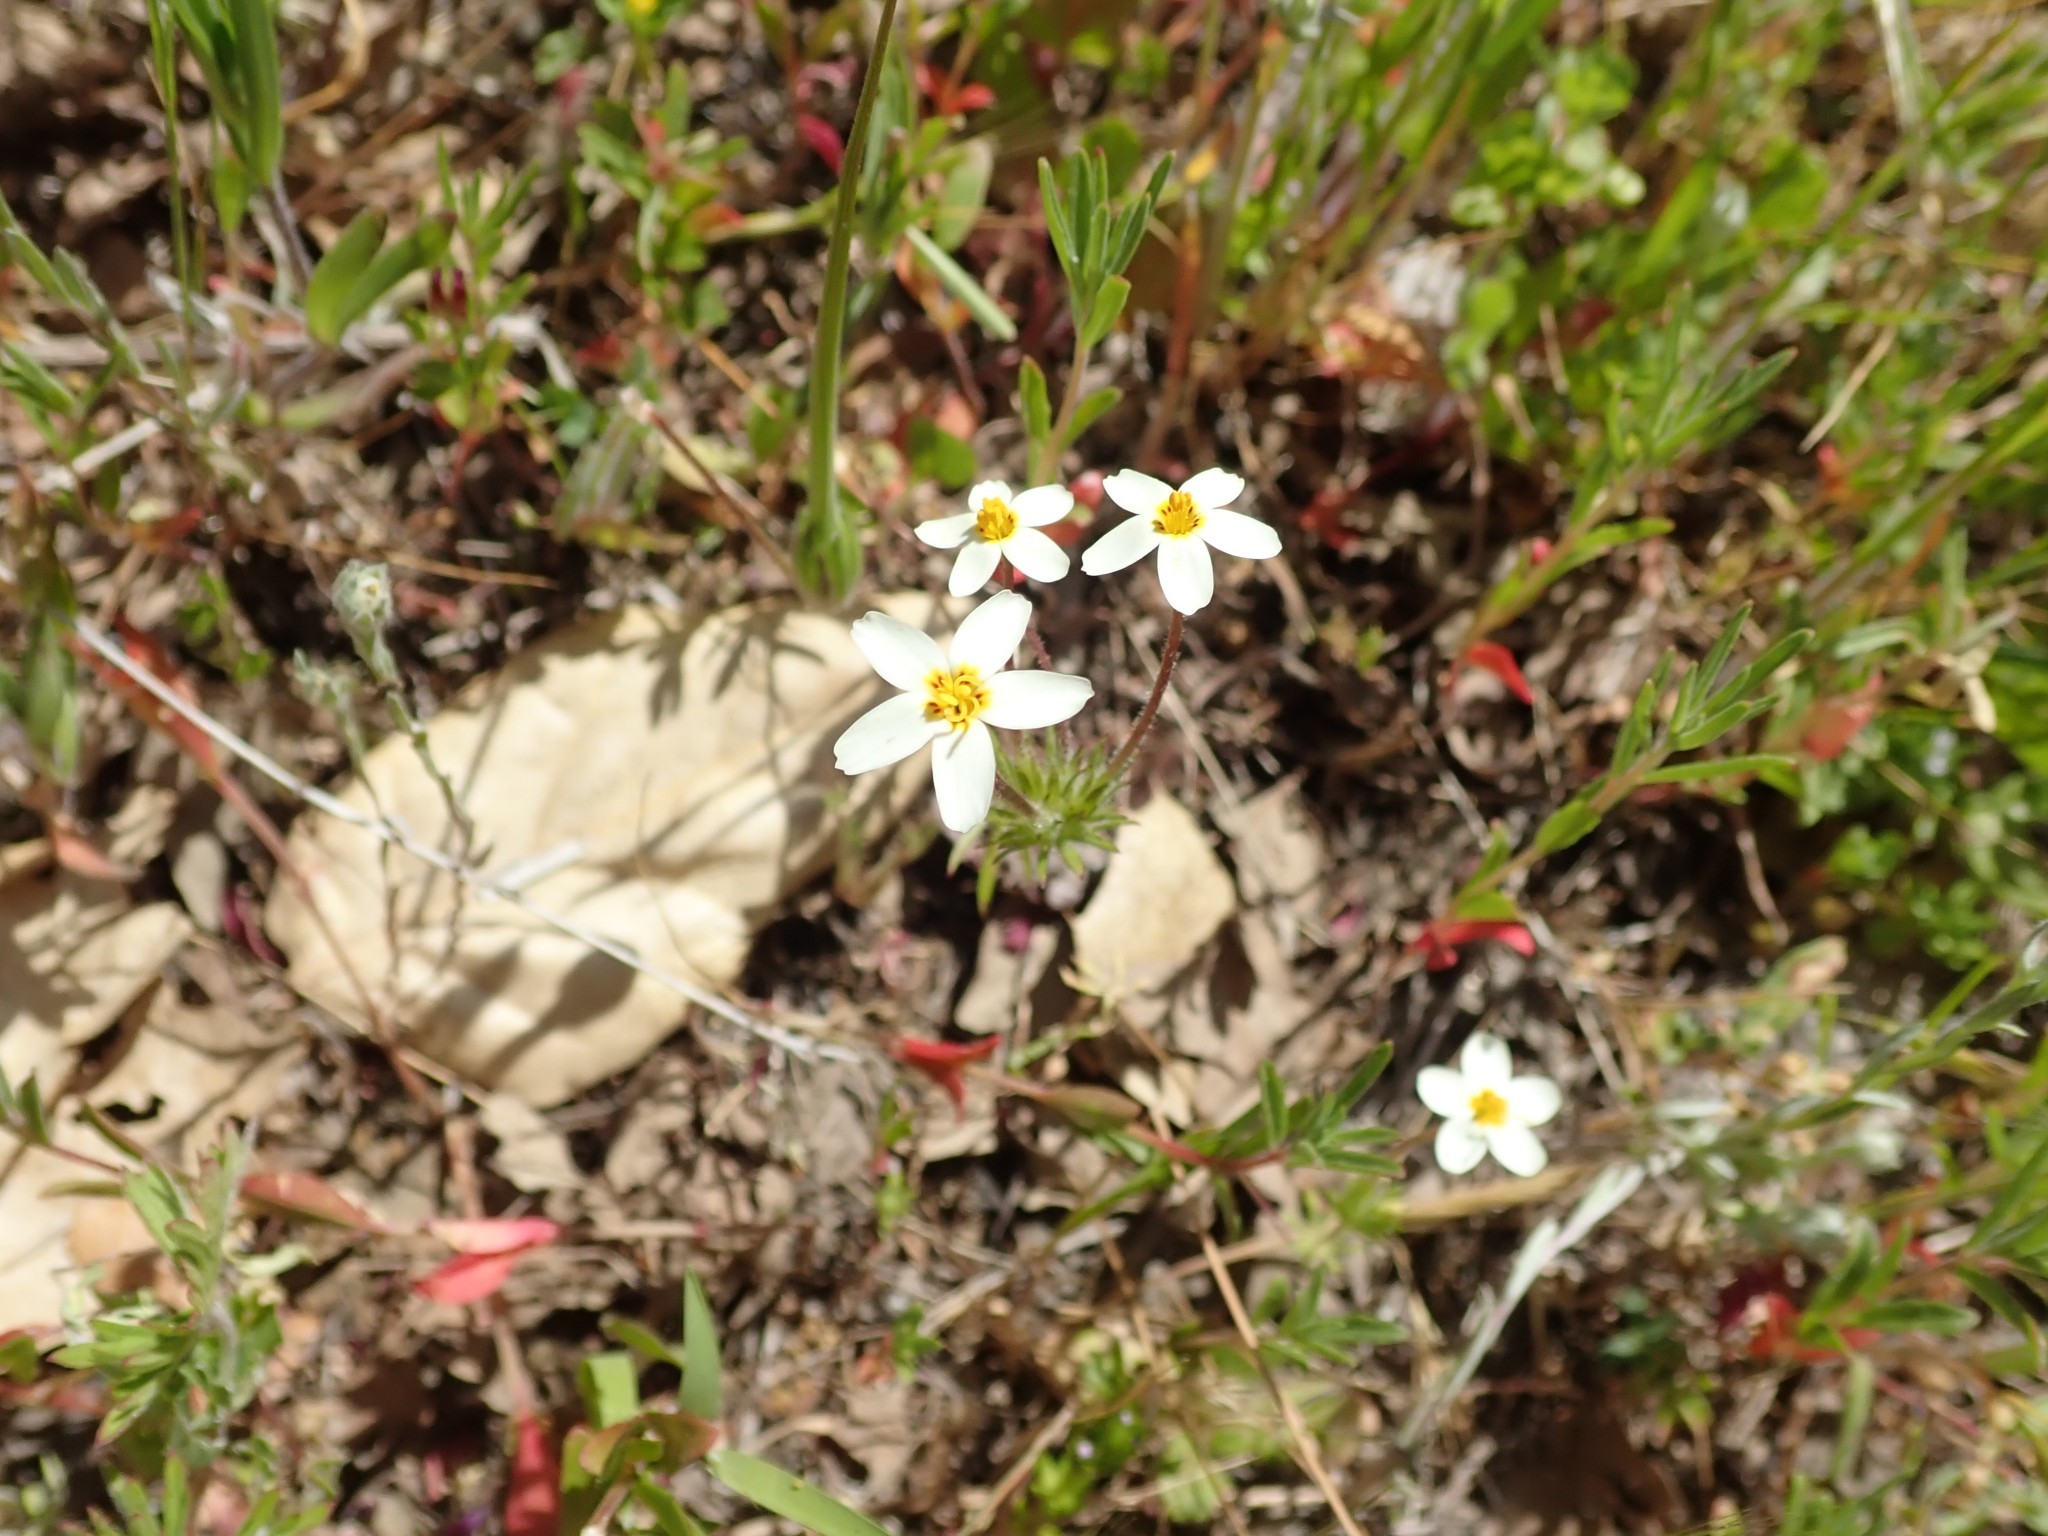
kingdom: Plantae
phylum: Tracheophyta
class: Magnoliopsida
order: Ericales
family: Polemoniaceae
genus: Leptosiphon
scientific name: Leptosiphon parviflorus
